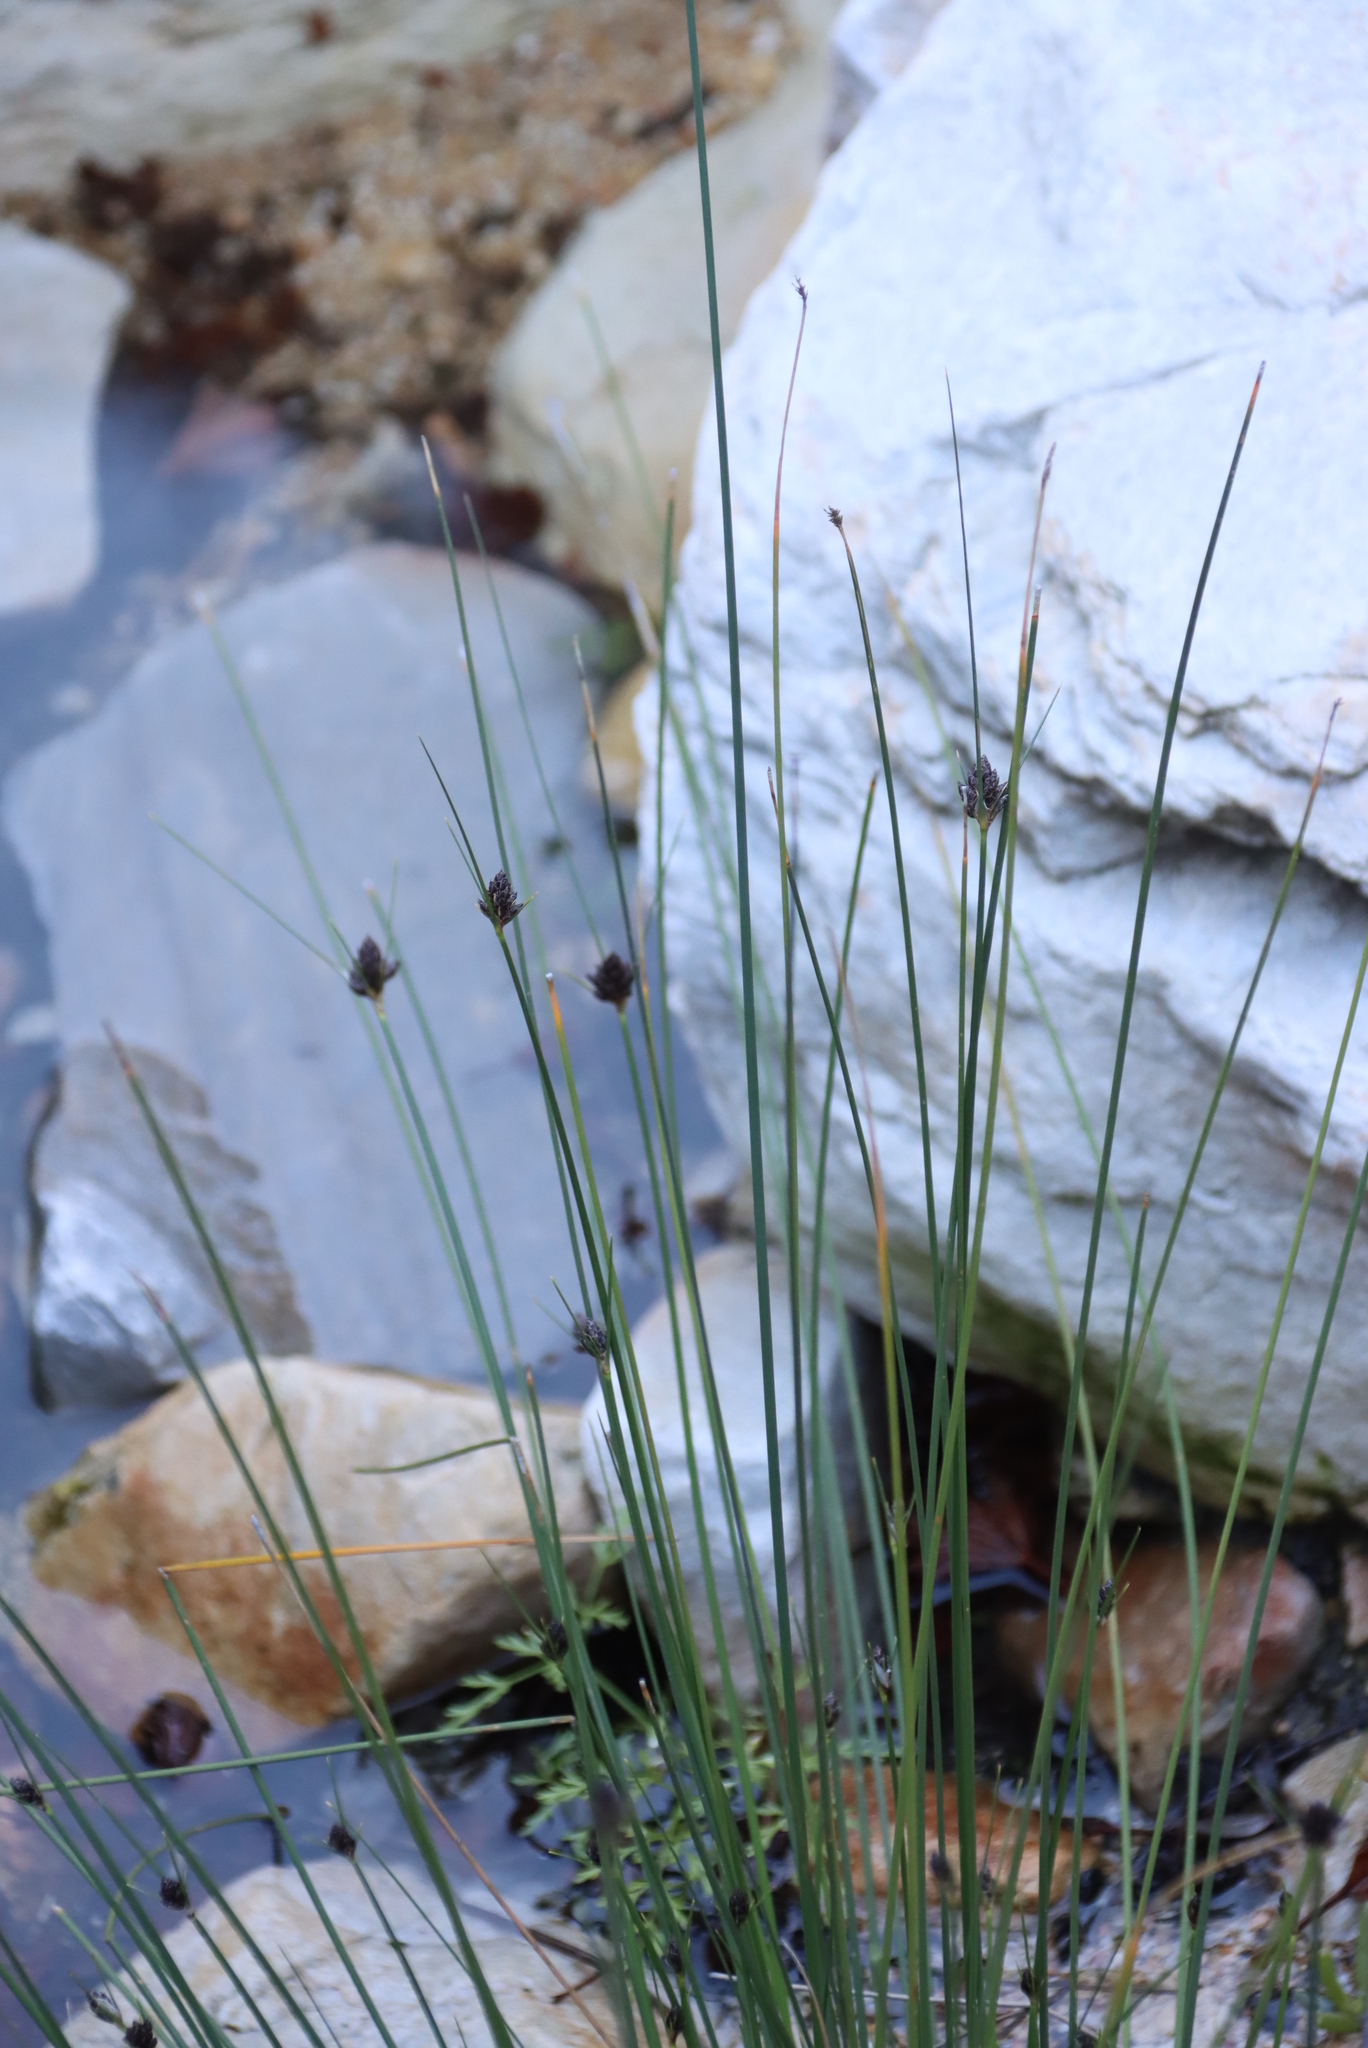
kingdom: Plantae
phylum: Tracheophyta
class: Liliopsida
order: Poales
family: Cyperaceae
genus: Ficinia
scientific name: Ficinia brevifolia
